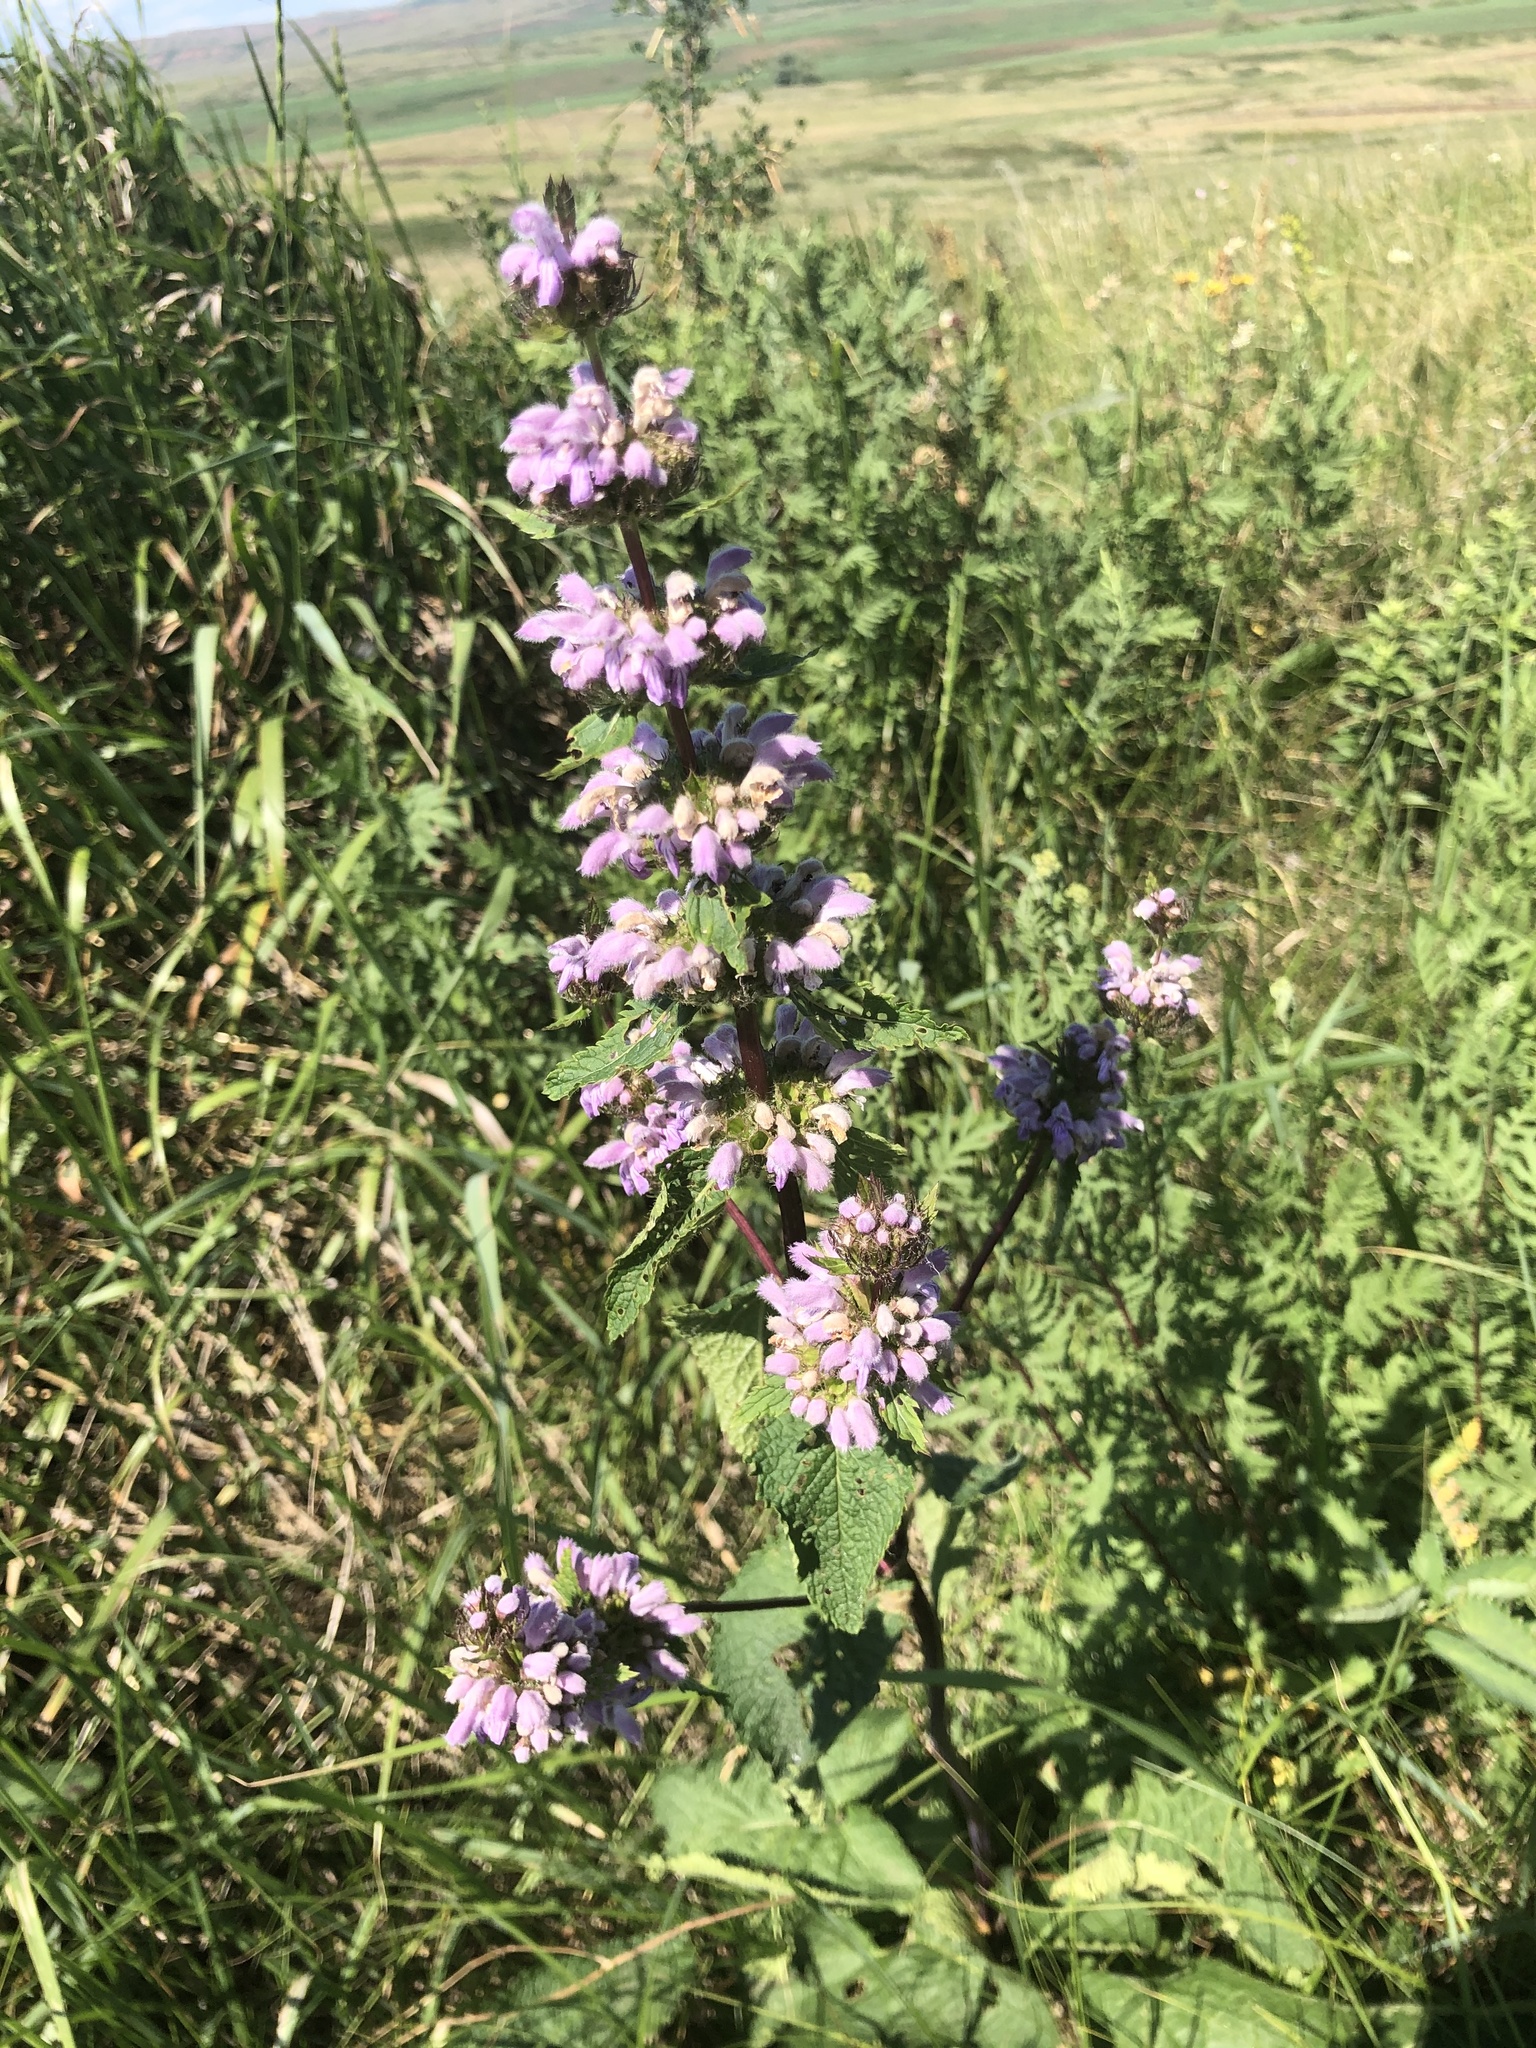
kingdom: Plantae
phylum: Tracheophyta
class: Magnoliopsida
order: Lamiales
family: Lamiaceae
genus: Phlomoides
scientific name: Phlomoides tuberosa
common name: Tuberous jerusalem sage
